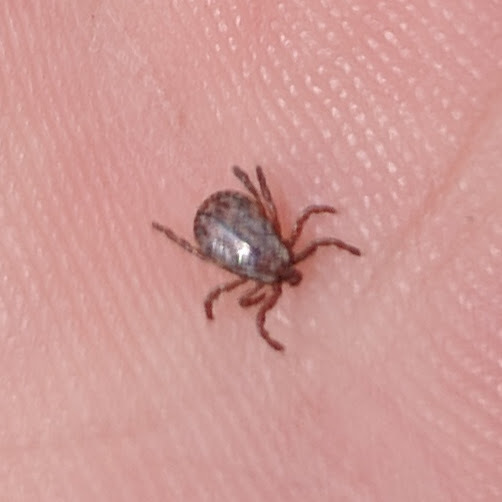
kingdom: Animalia
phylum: Arthropoda
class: Arachnida
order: Ixodida
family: Ixodidae
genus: Dermacentor
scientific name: Dermacentor occidentalis
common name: Net tick
